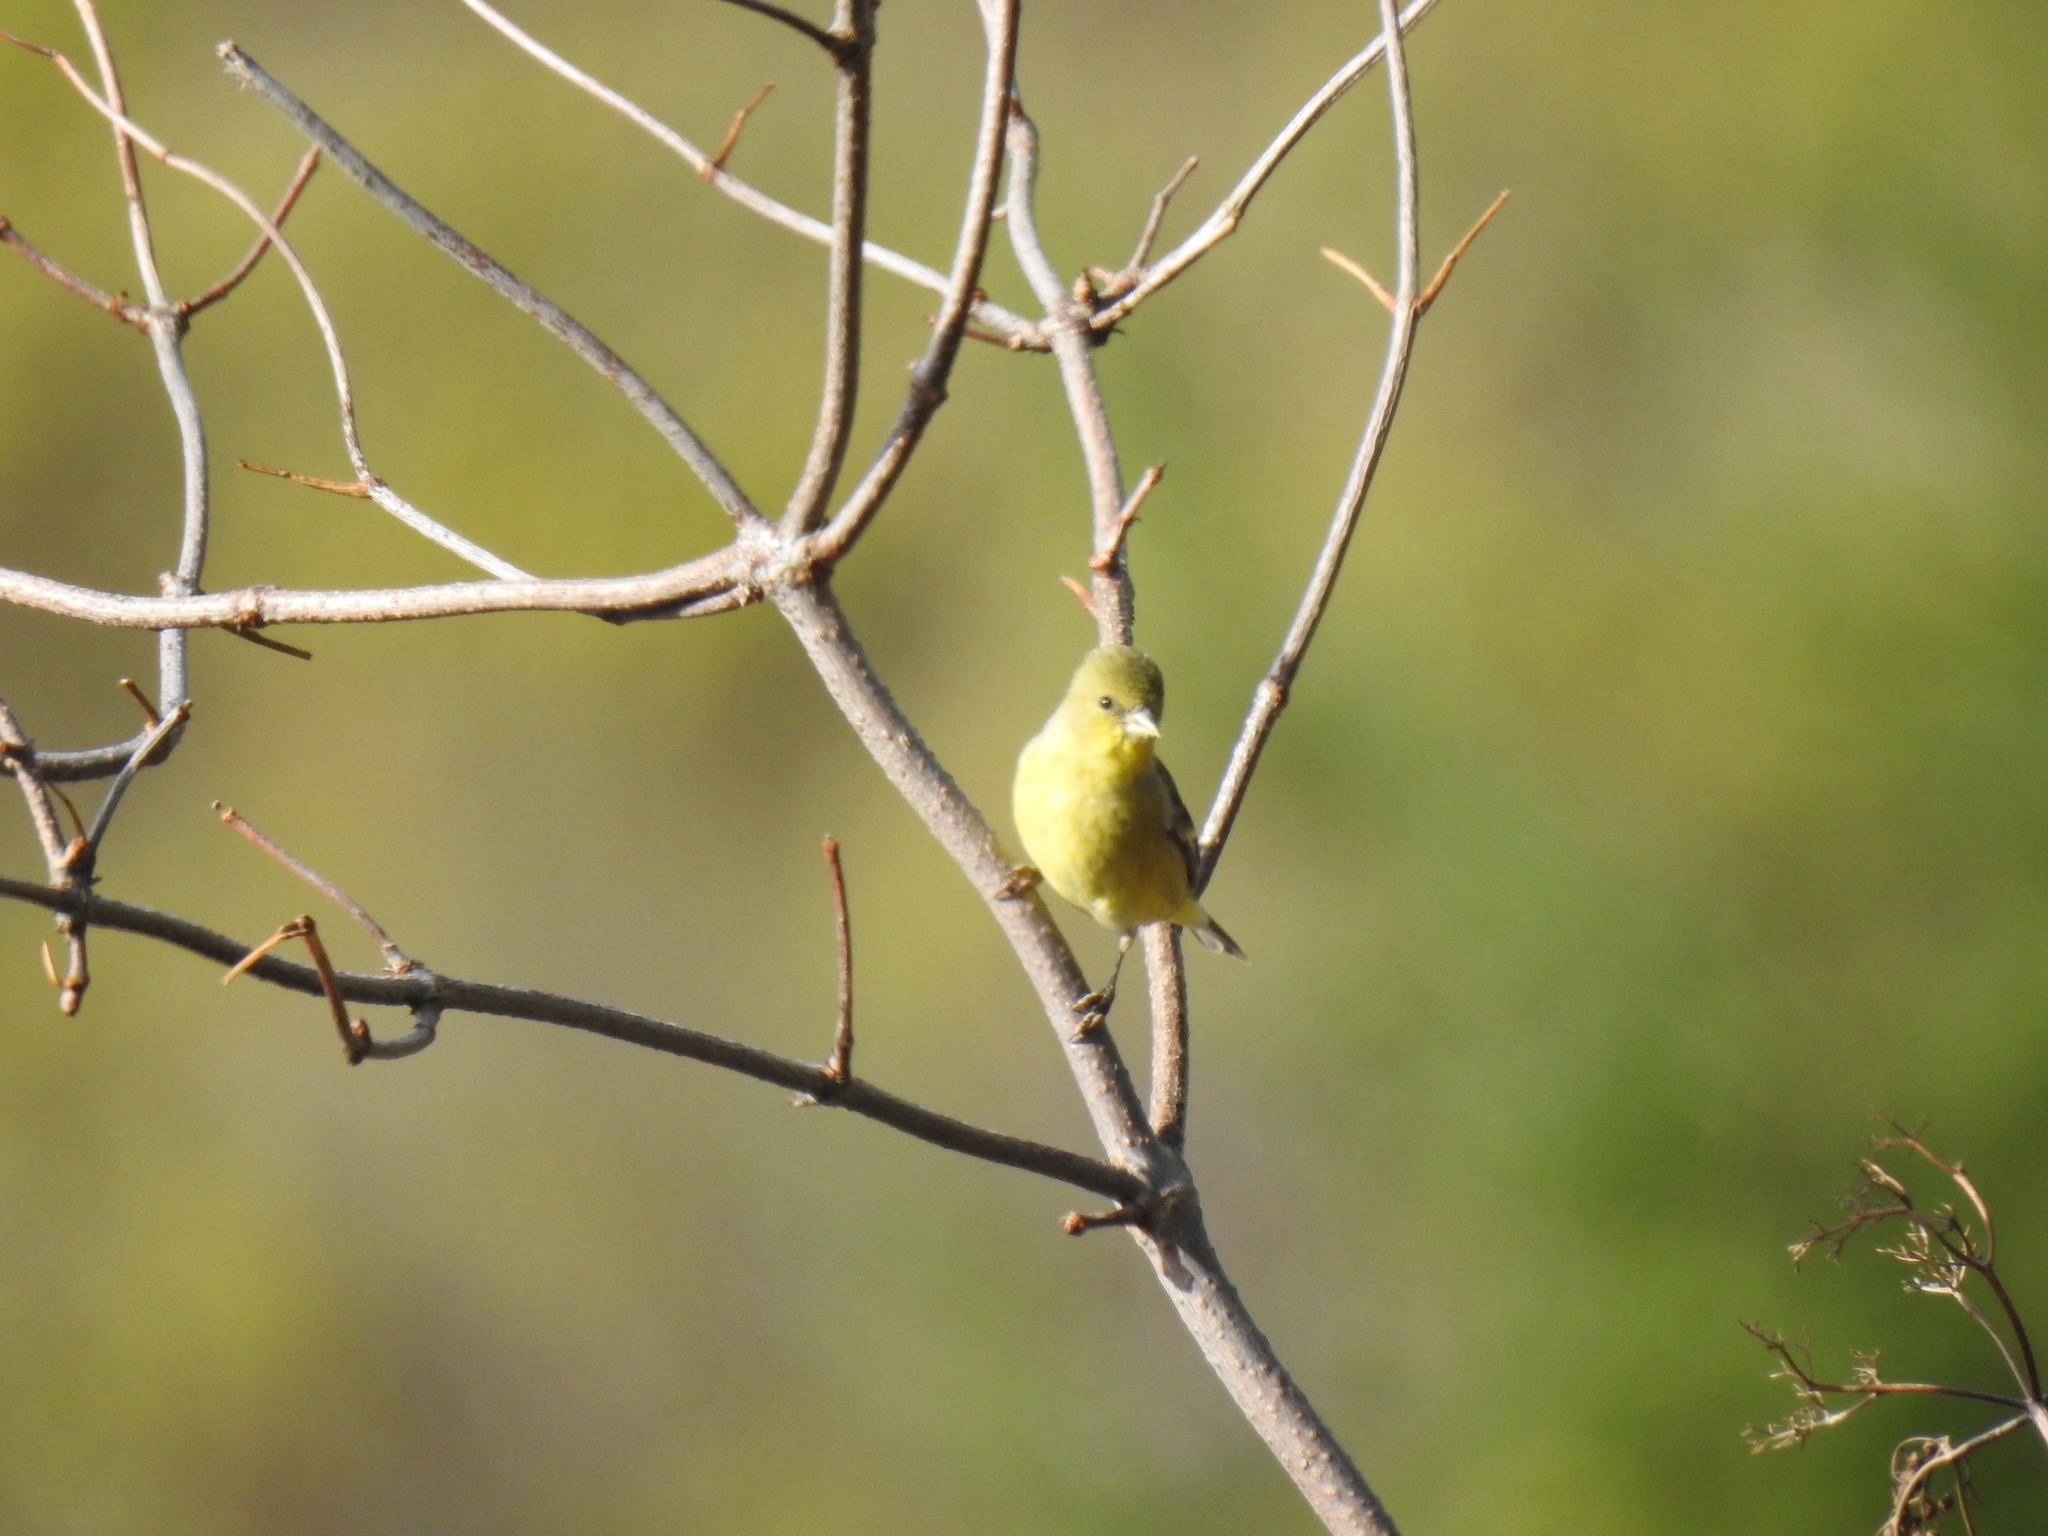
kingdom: Animalia
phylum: Chordata
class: Aves
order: Passeriformes
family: Fringillidae
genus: Spinus
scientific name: Spinus psaltria
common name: Lesser goldfinch
